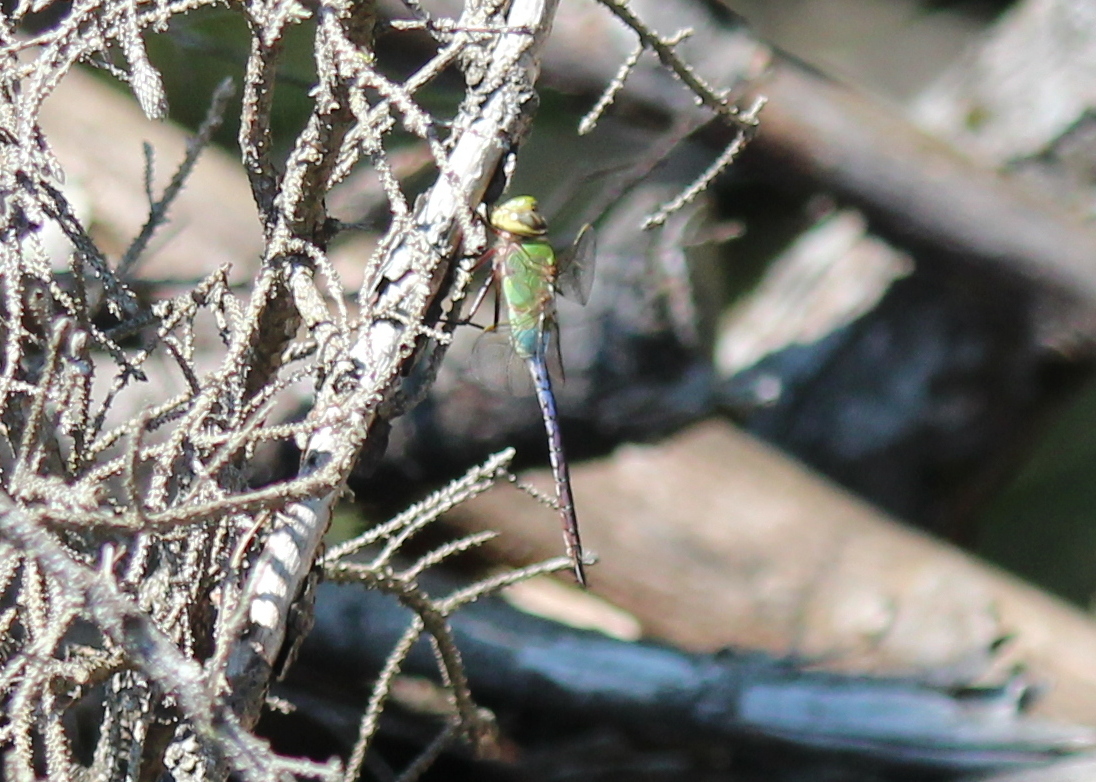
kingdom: Animalia
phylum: Arthropoda
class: Insecta
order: Odonata
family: Aeshnidae
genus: Anax
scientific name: Anax junius
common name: Common green darner
